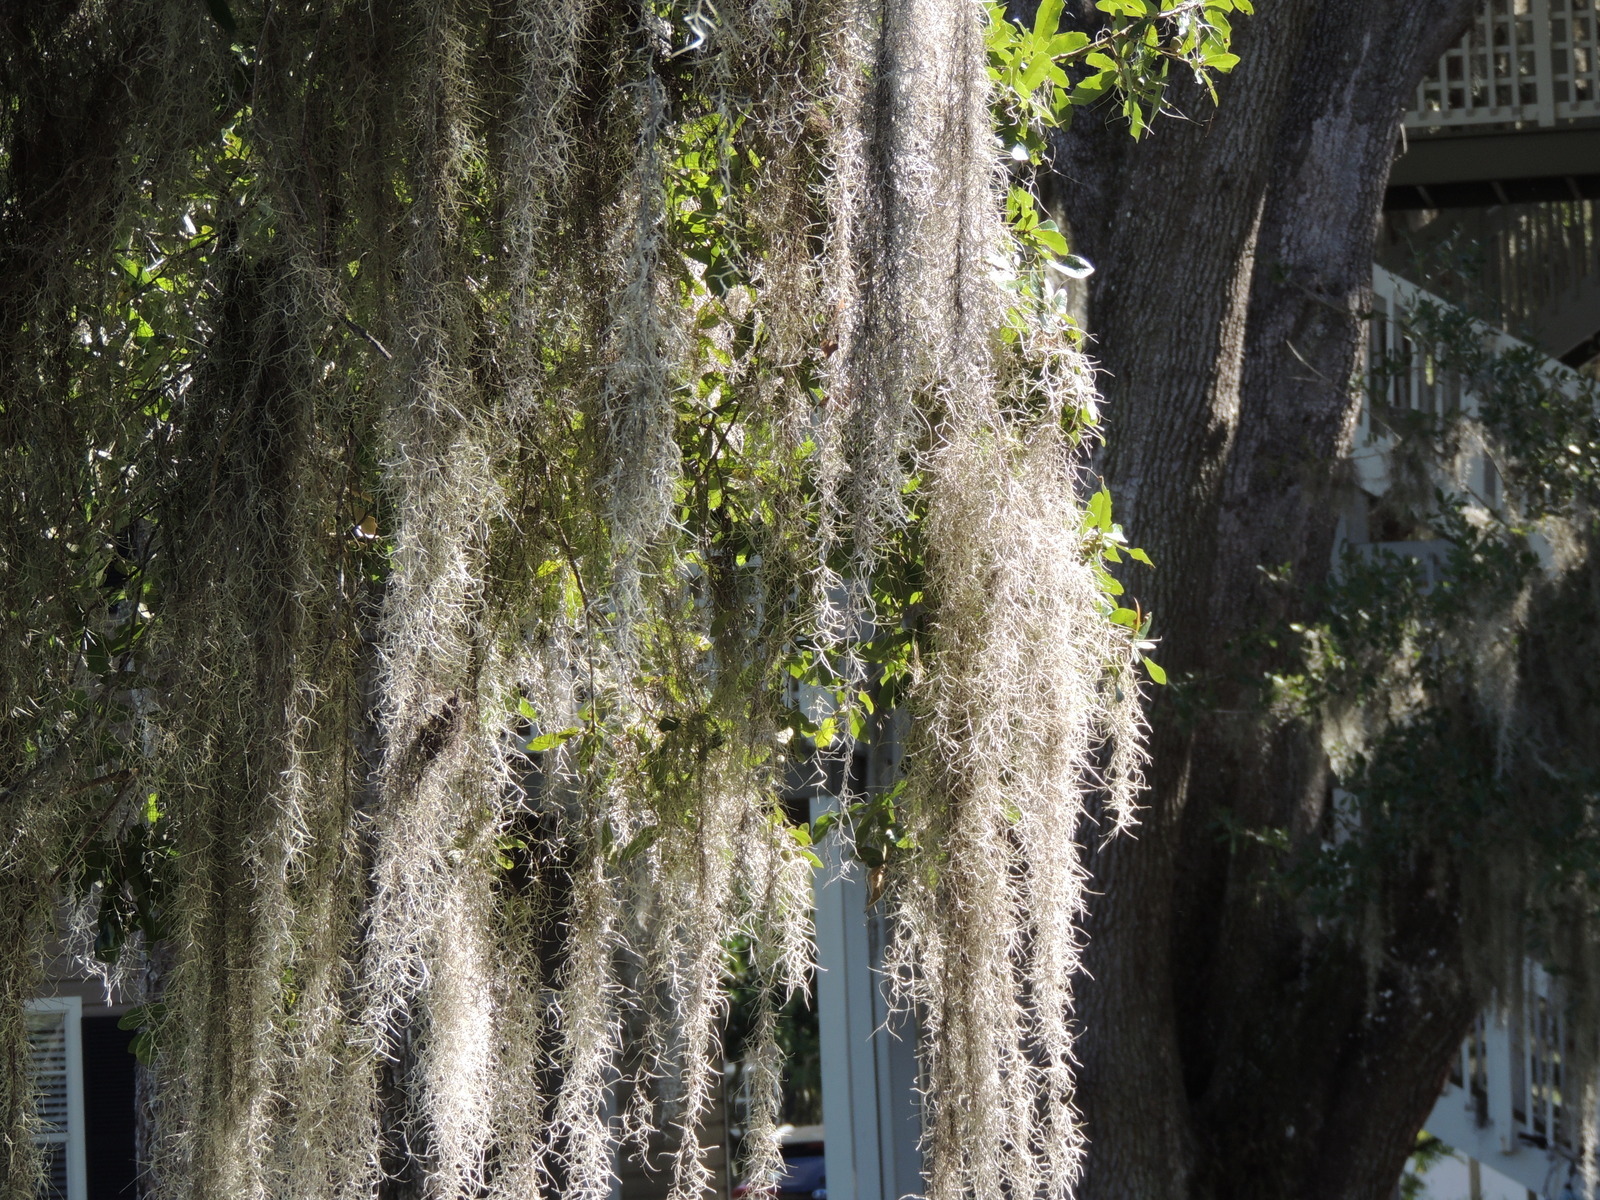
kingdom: Plantae
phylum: Tracheophyta
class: Liliopsida
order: Poales
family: Bromeliaceae
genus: Tillandsia
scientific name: Tillandsia usneoides
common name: Spanish moss
